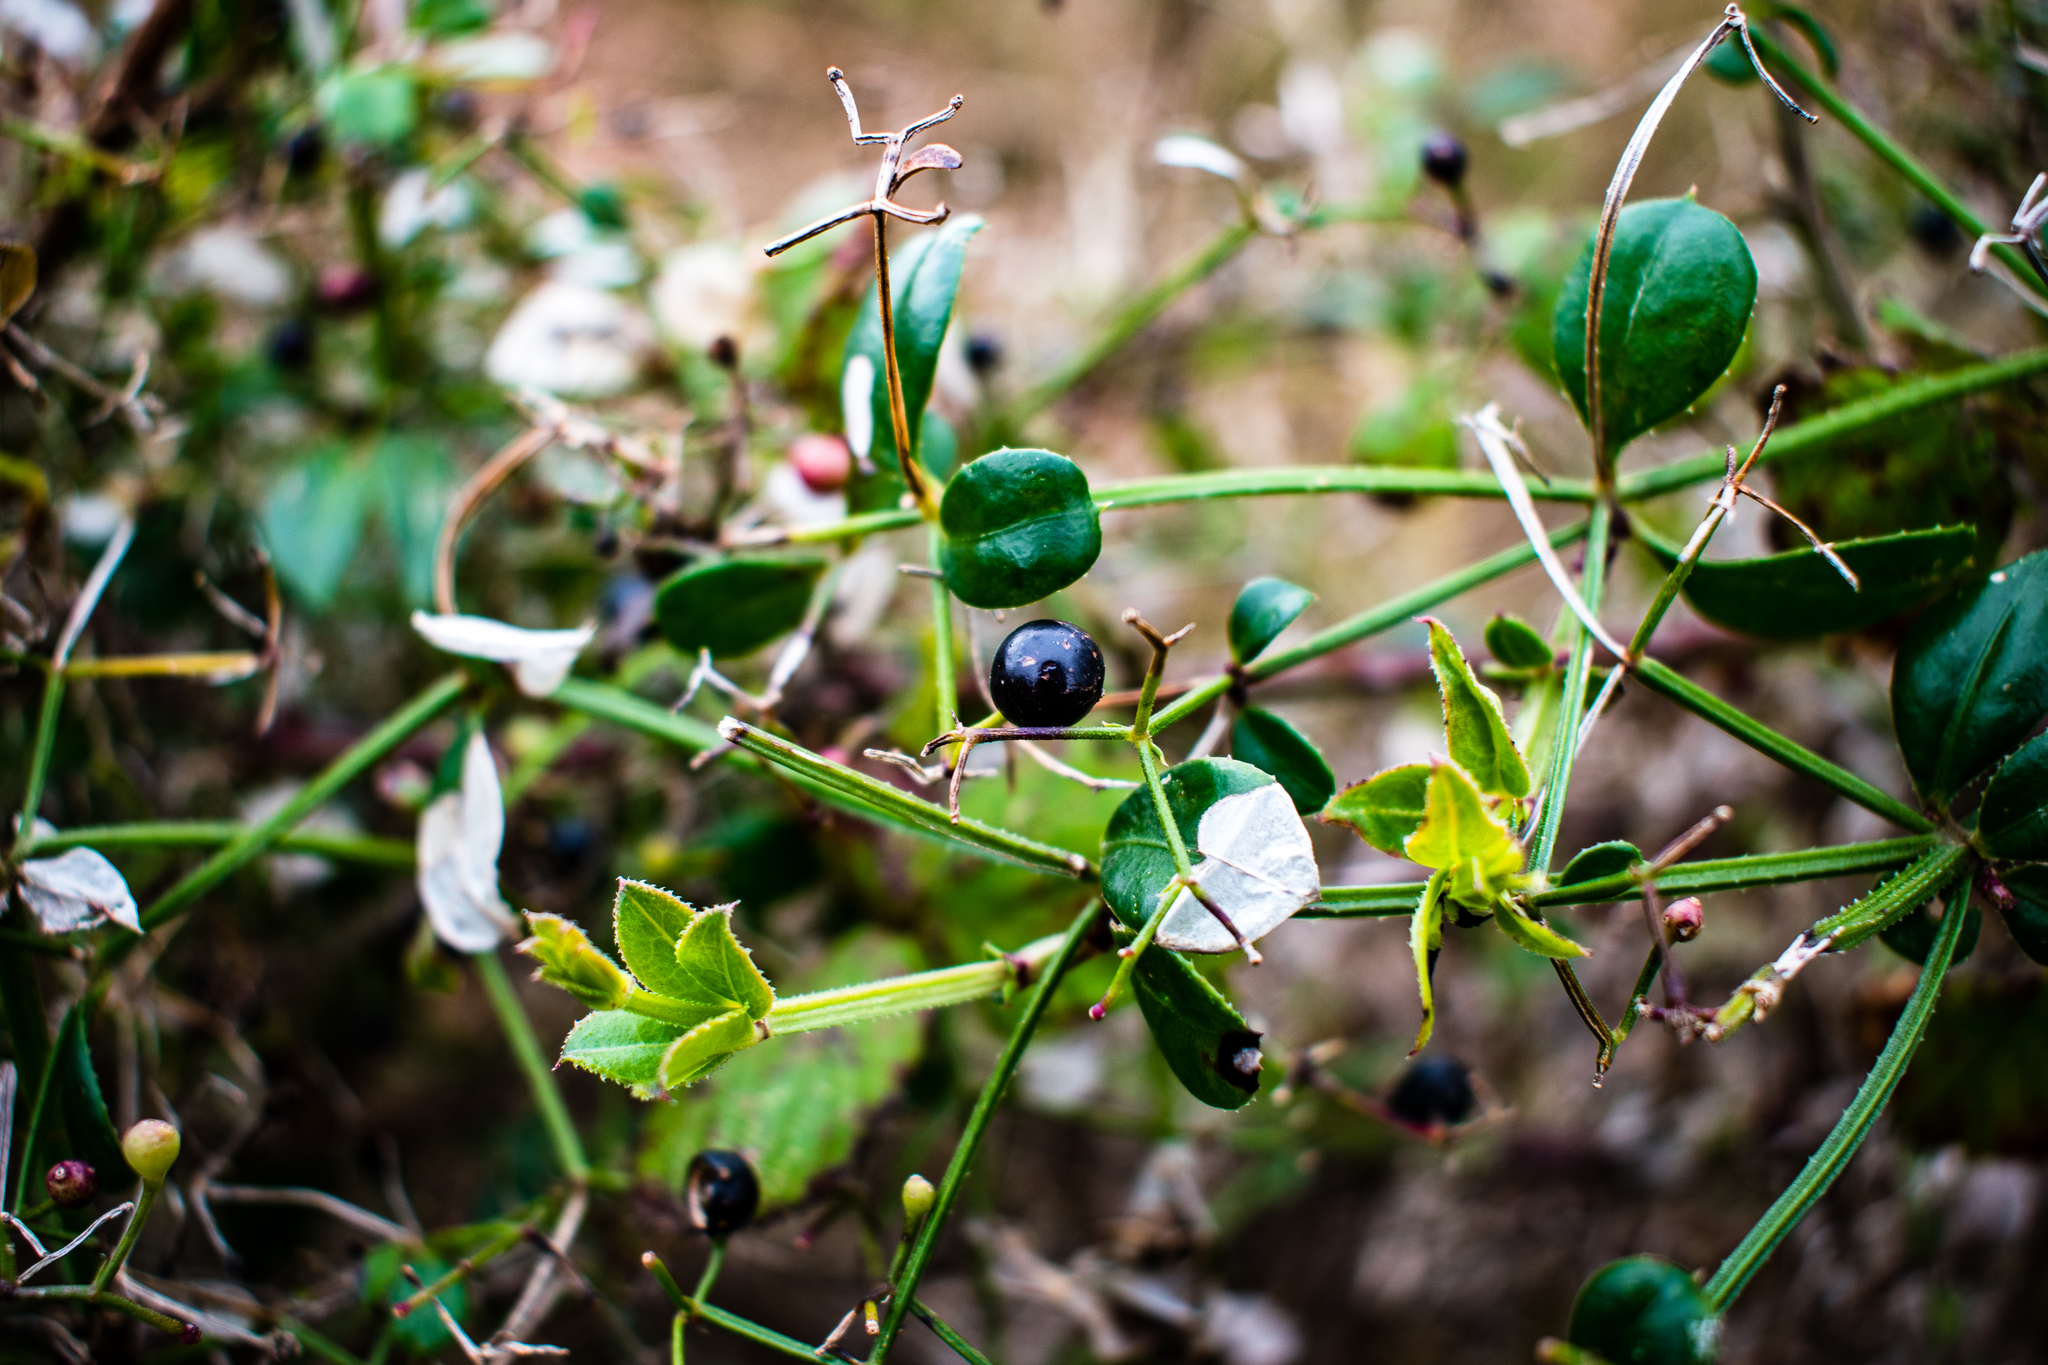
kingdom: Plantae
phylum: Tracheophyta
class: Magnoliopsida
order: Gentianales
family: Rubiaceae
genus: Rubia
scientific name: Rubia peregrina
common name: Wild madder
